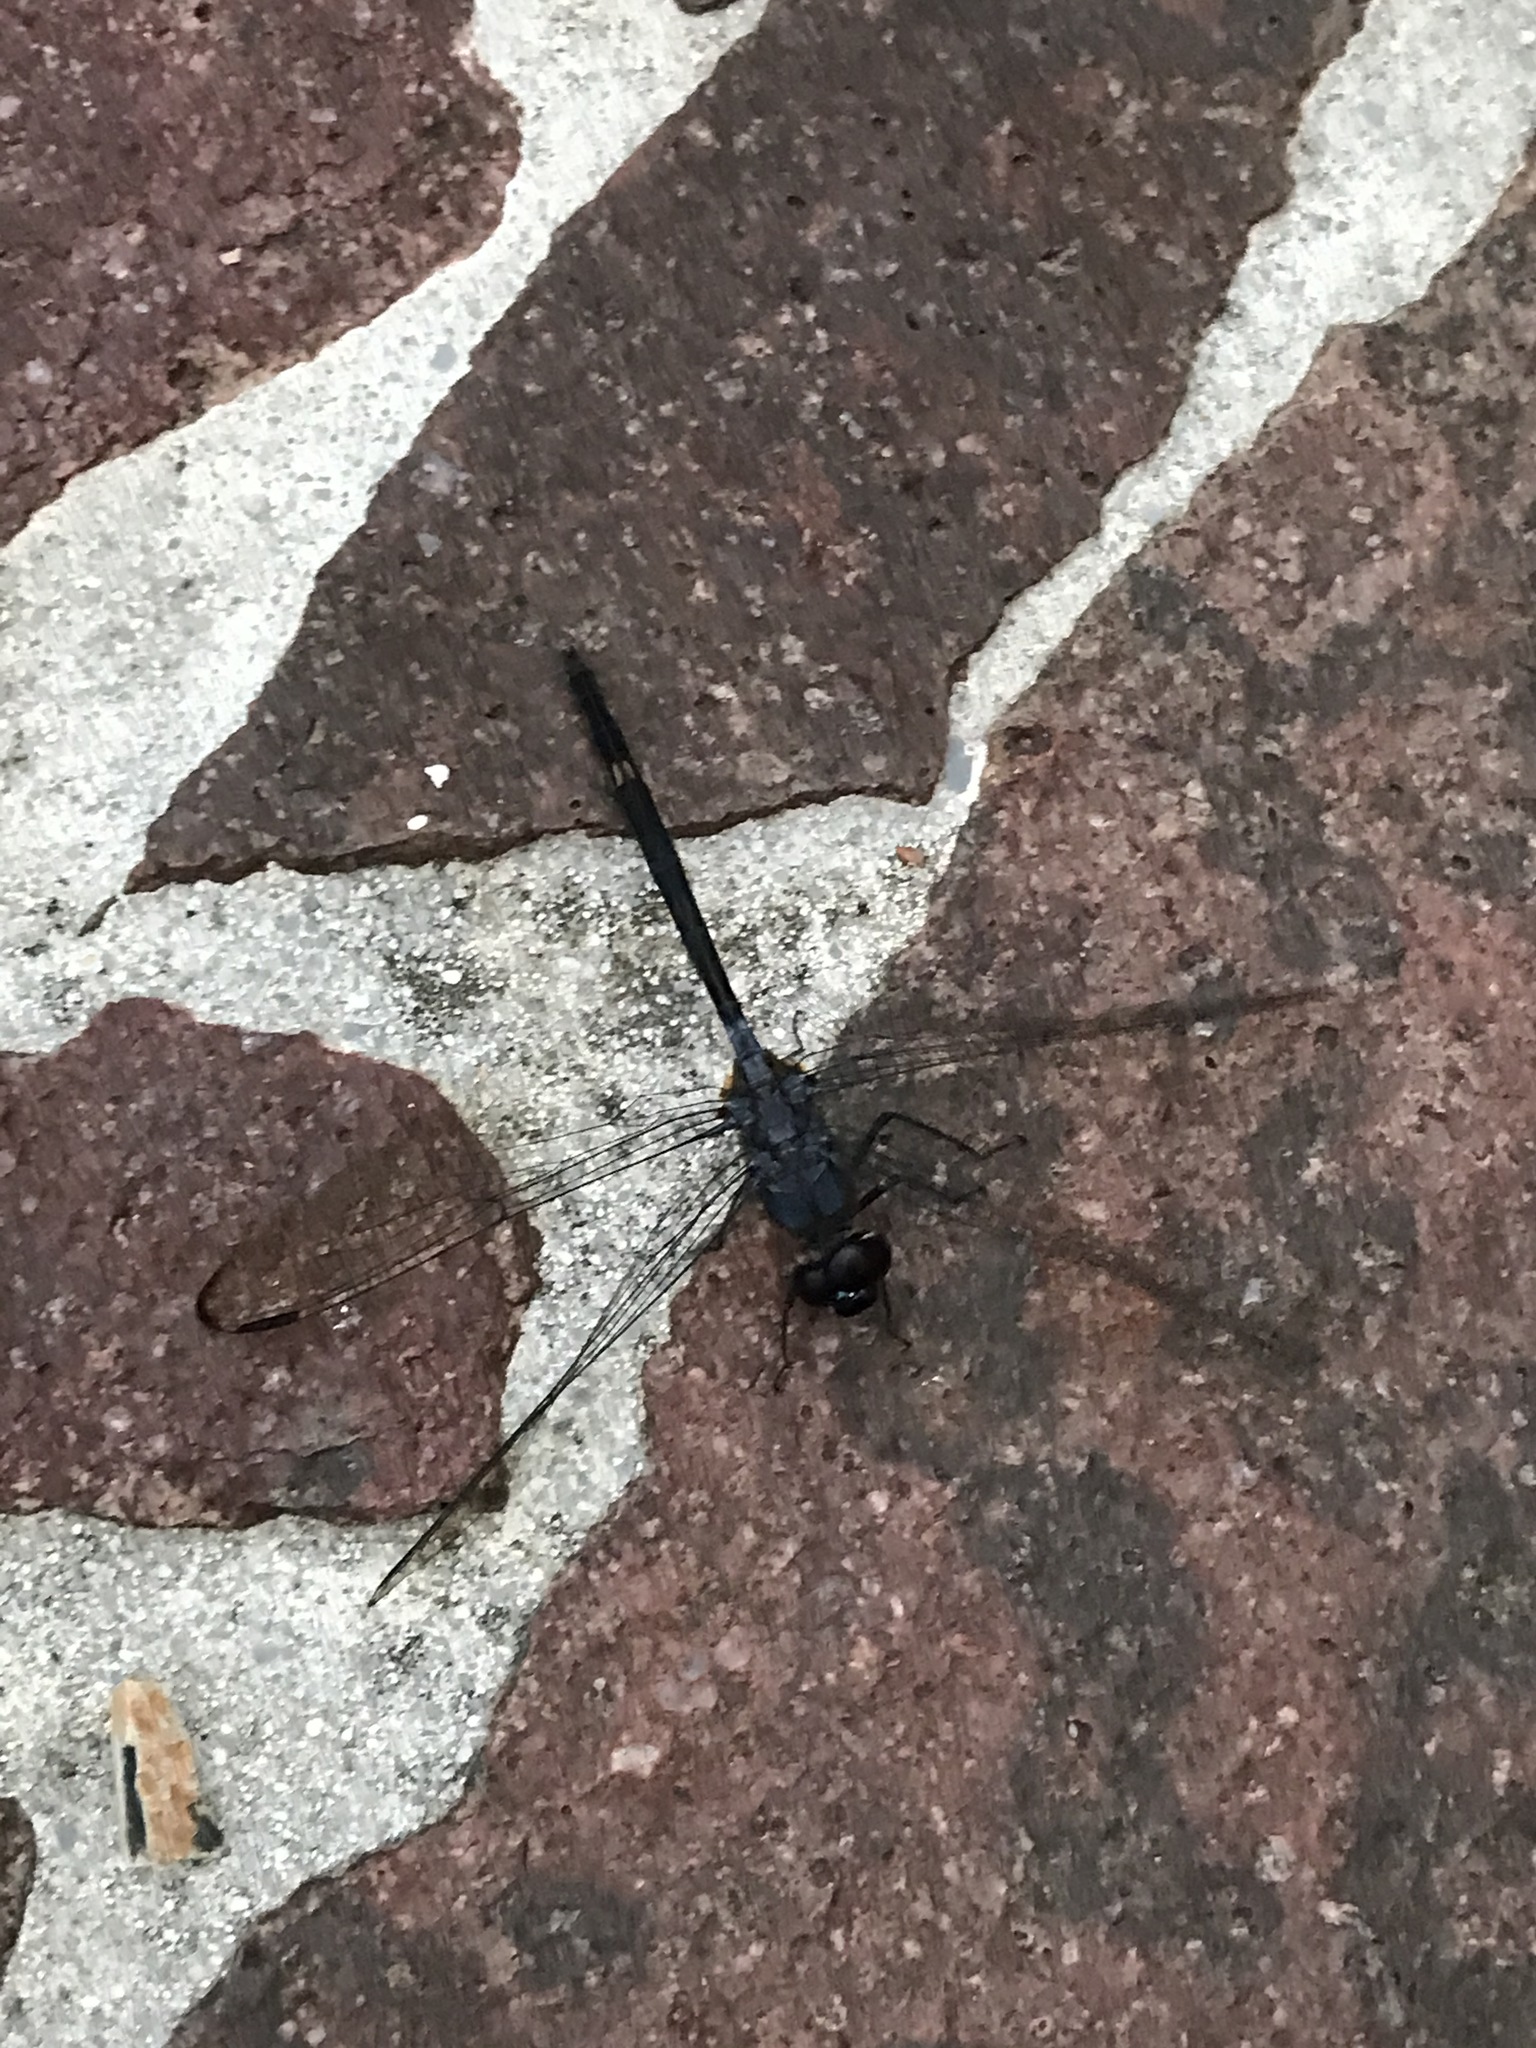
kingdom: Animalia
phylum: Arthropoda
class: Insecta
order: Odonata
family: Libellulidae
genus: Dythemis
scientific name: Dythemis nigrescens
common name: Black setwing
